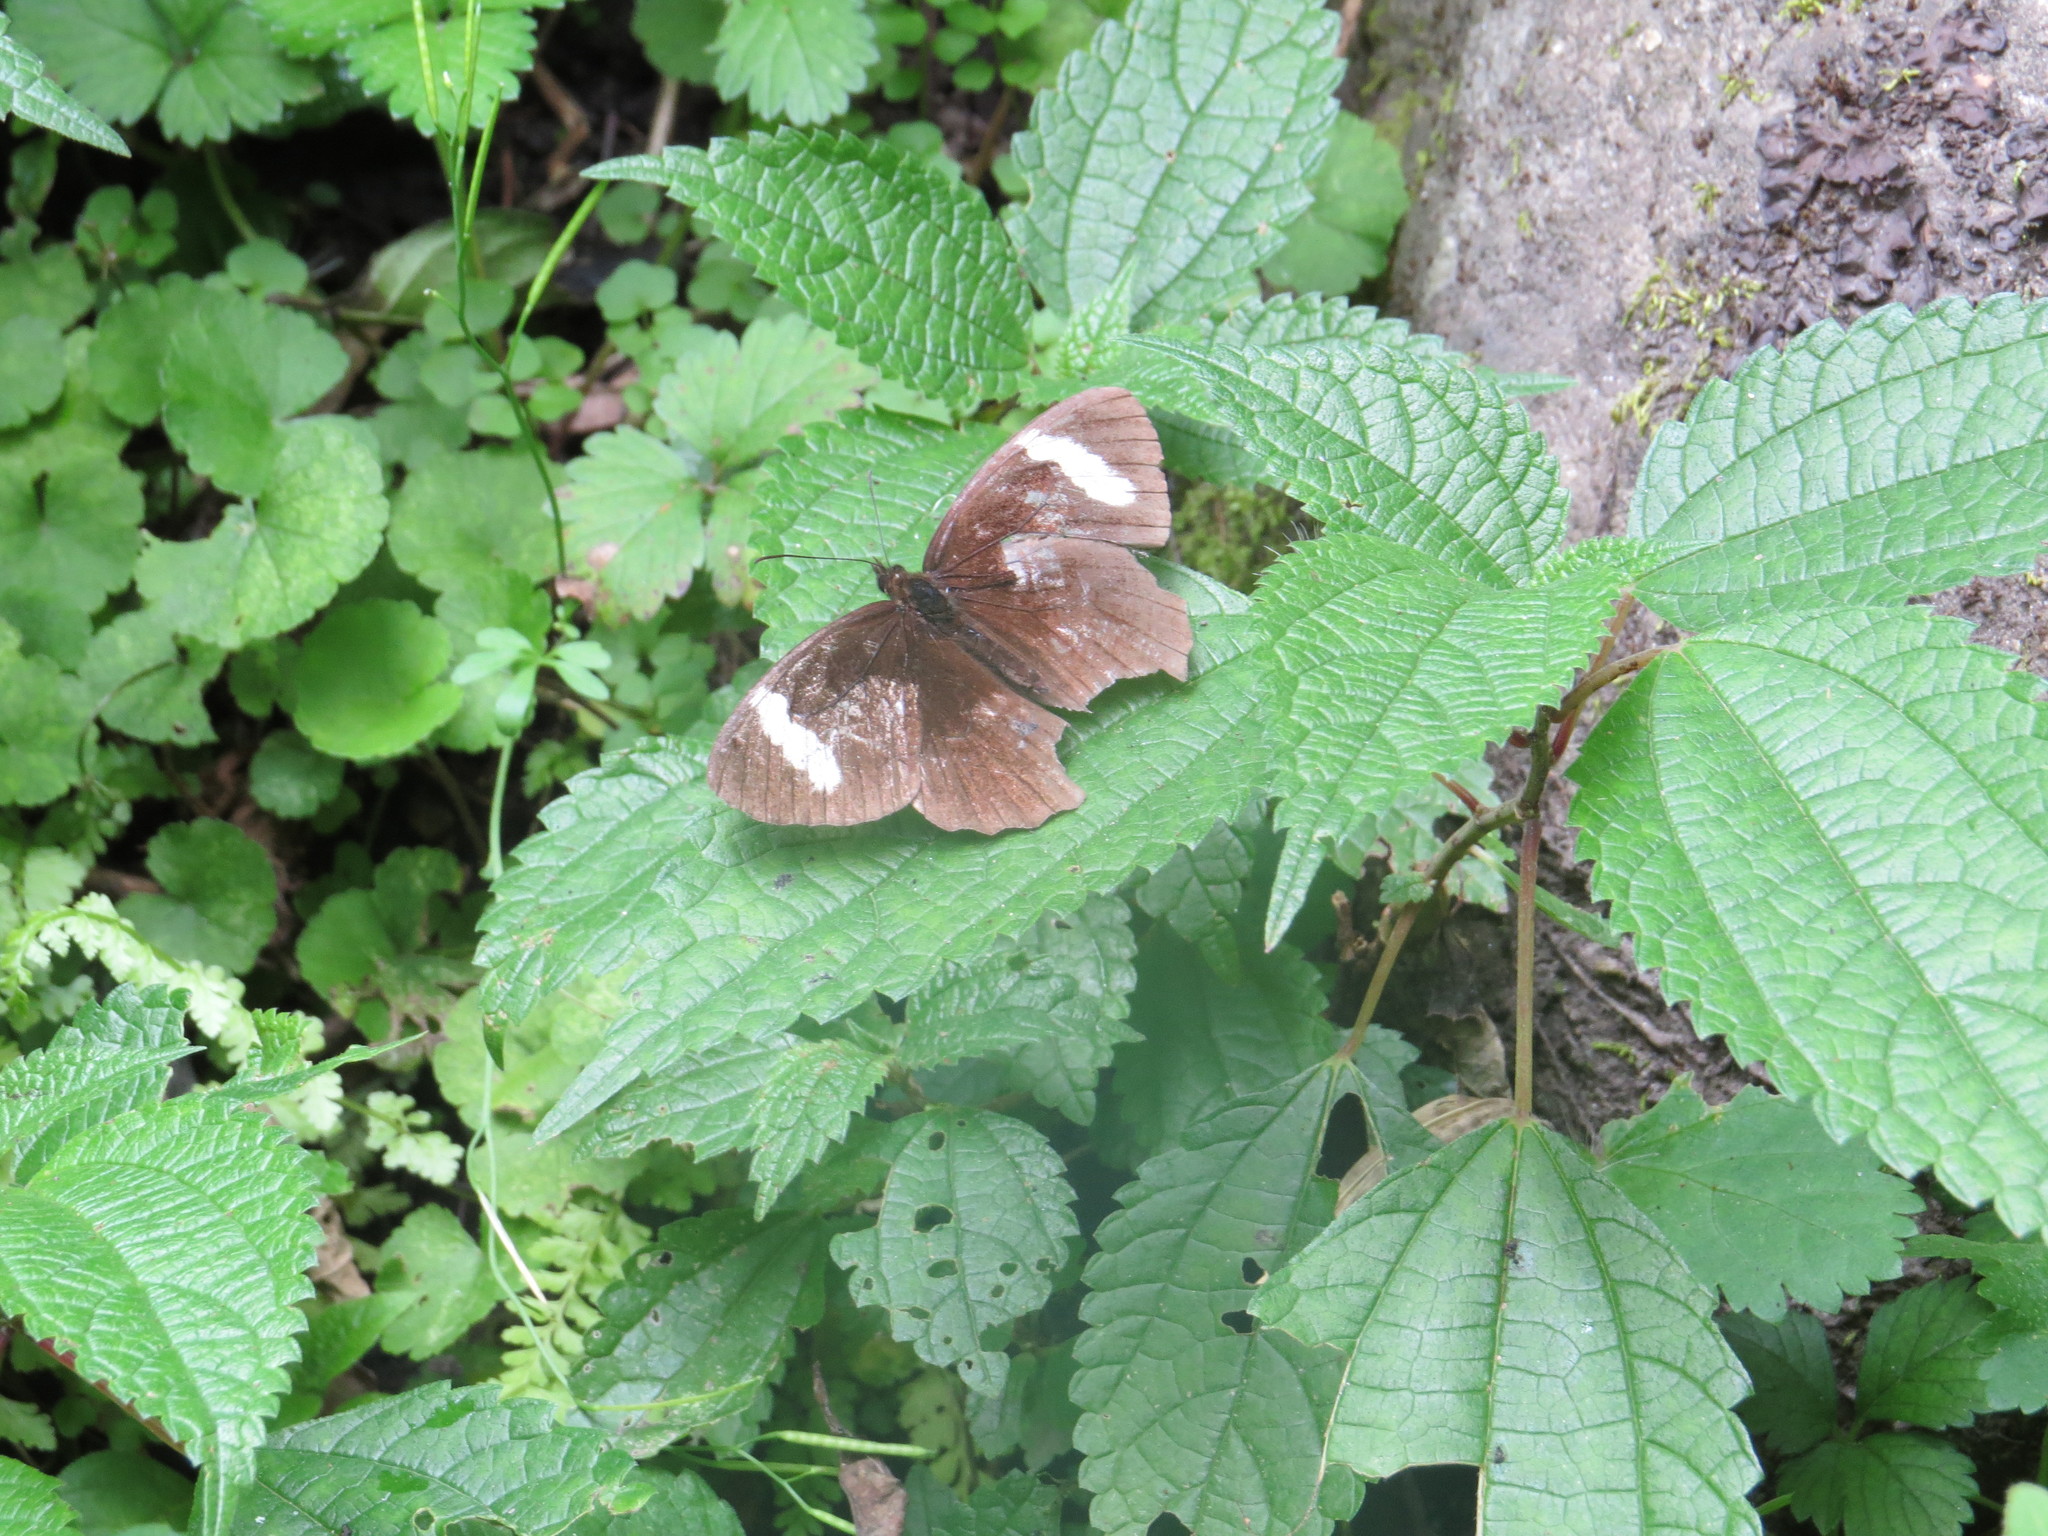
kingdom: Animalia
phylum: Arthropoda
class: Insecta
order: Lepidoptera
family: Nymphalidae
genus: Pedaliodes
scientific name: Pedaliodes porina
